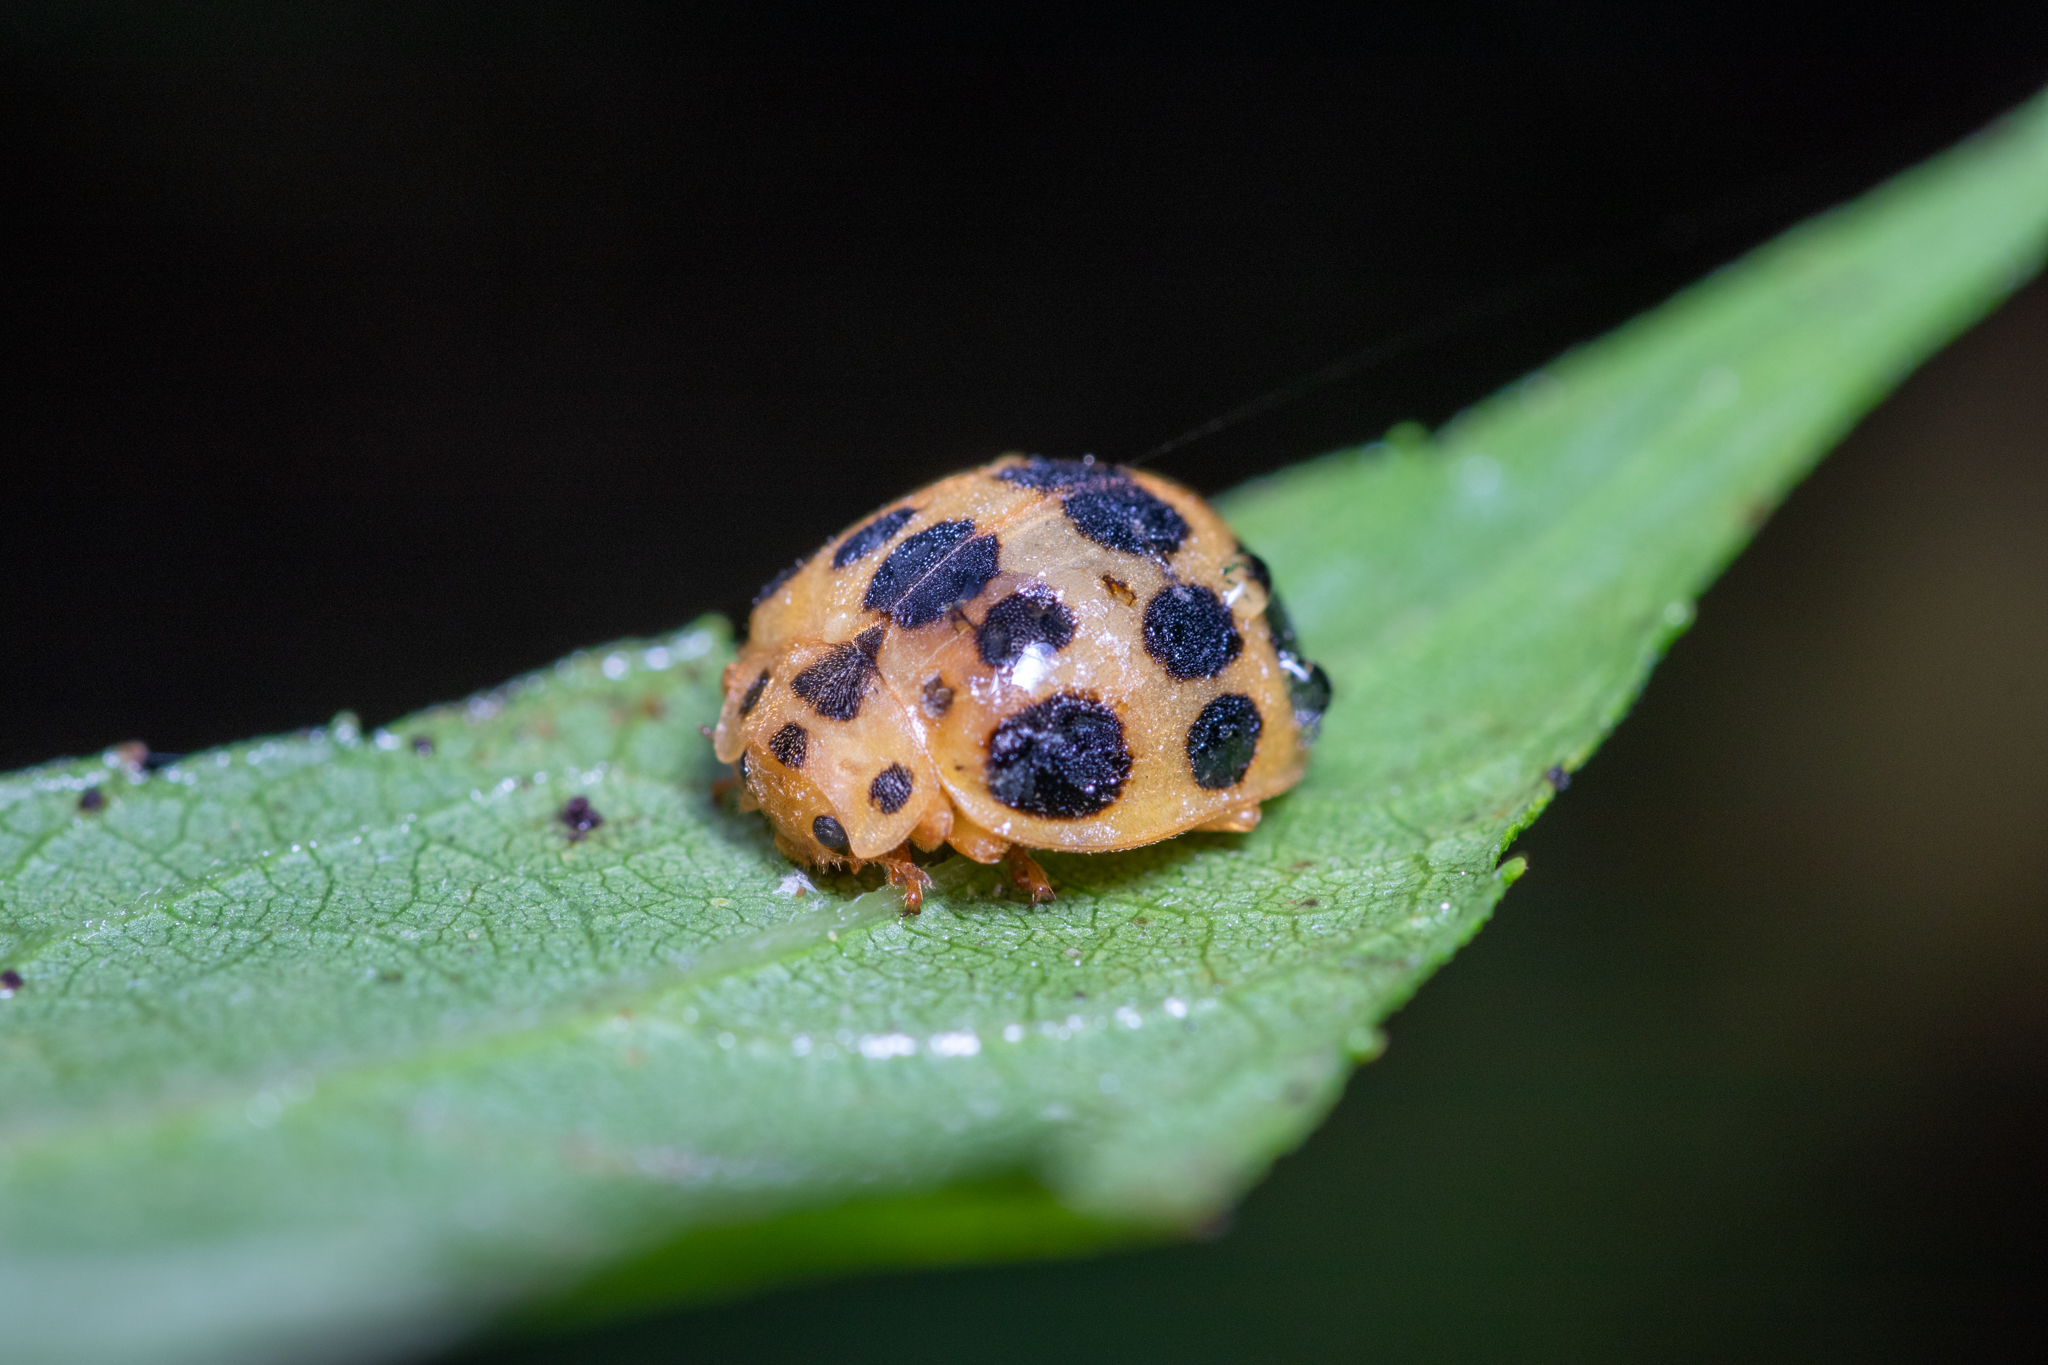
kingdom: Animalia
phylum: Arthropoda
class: Insecta
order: Coleoptera
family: Coccinellidae
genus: Epilachna
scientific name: Epilachna borealis
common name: Squash beetle
